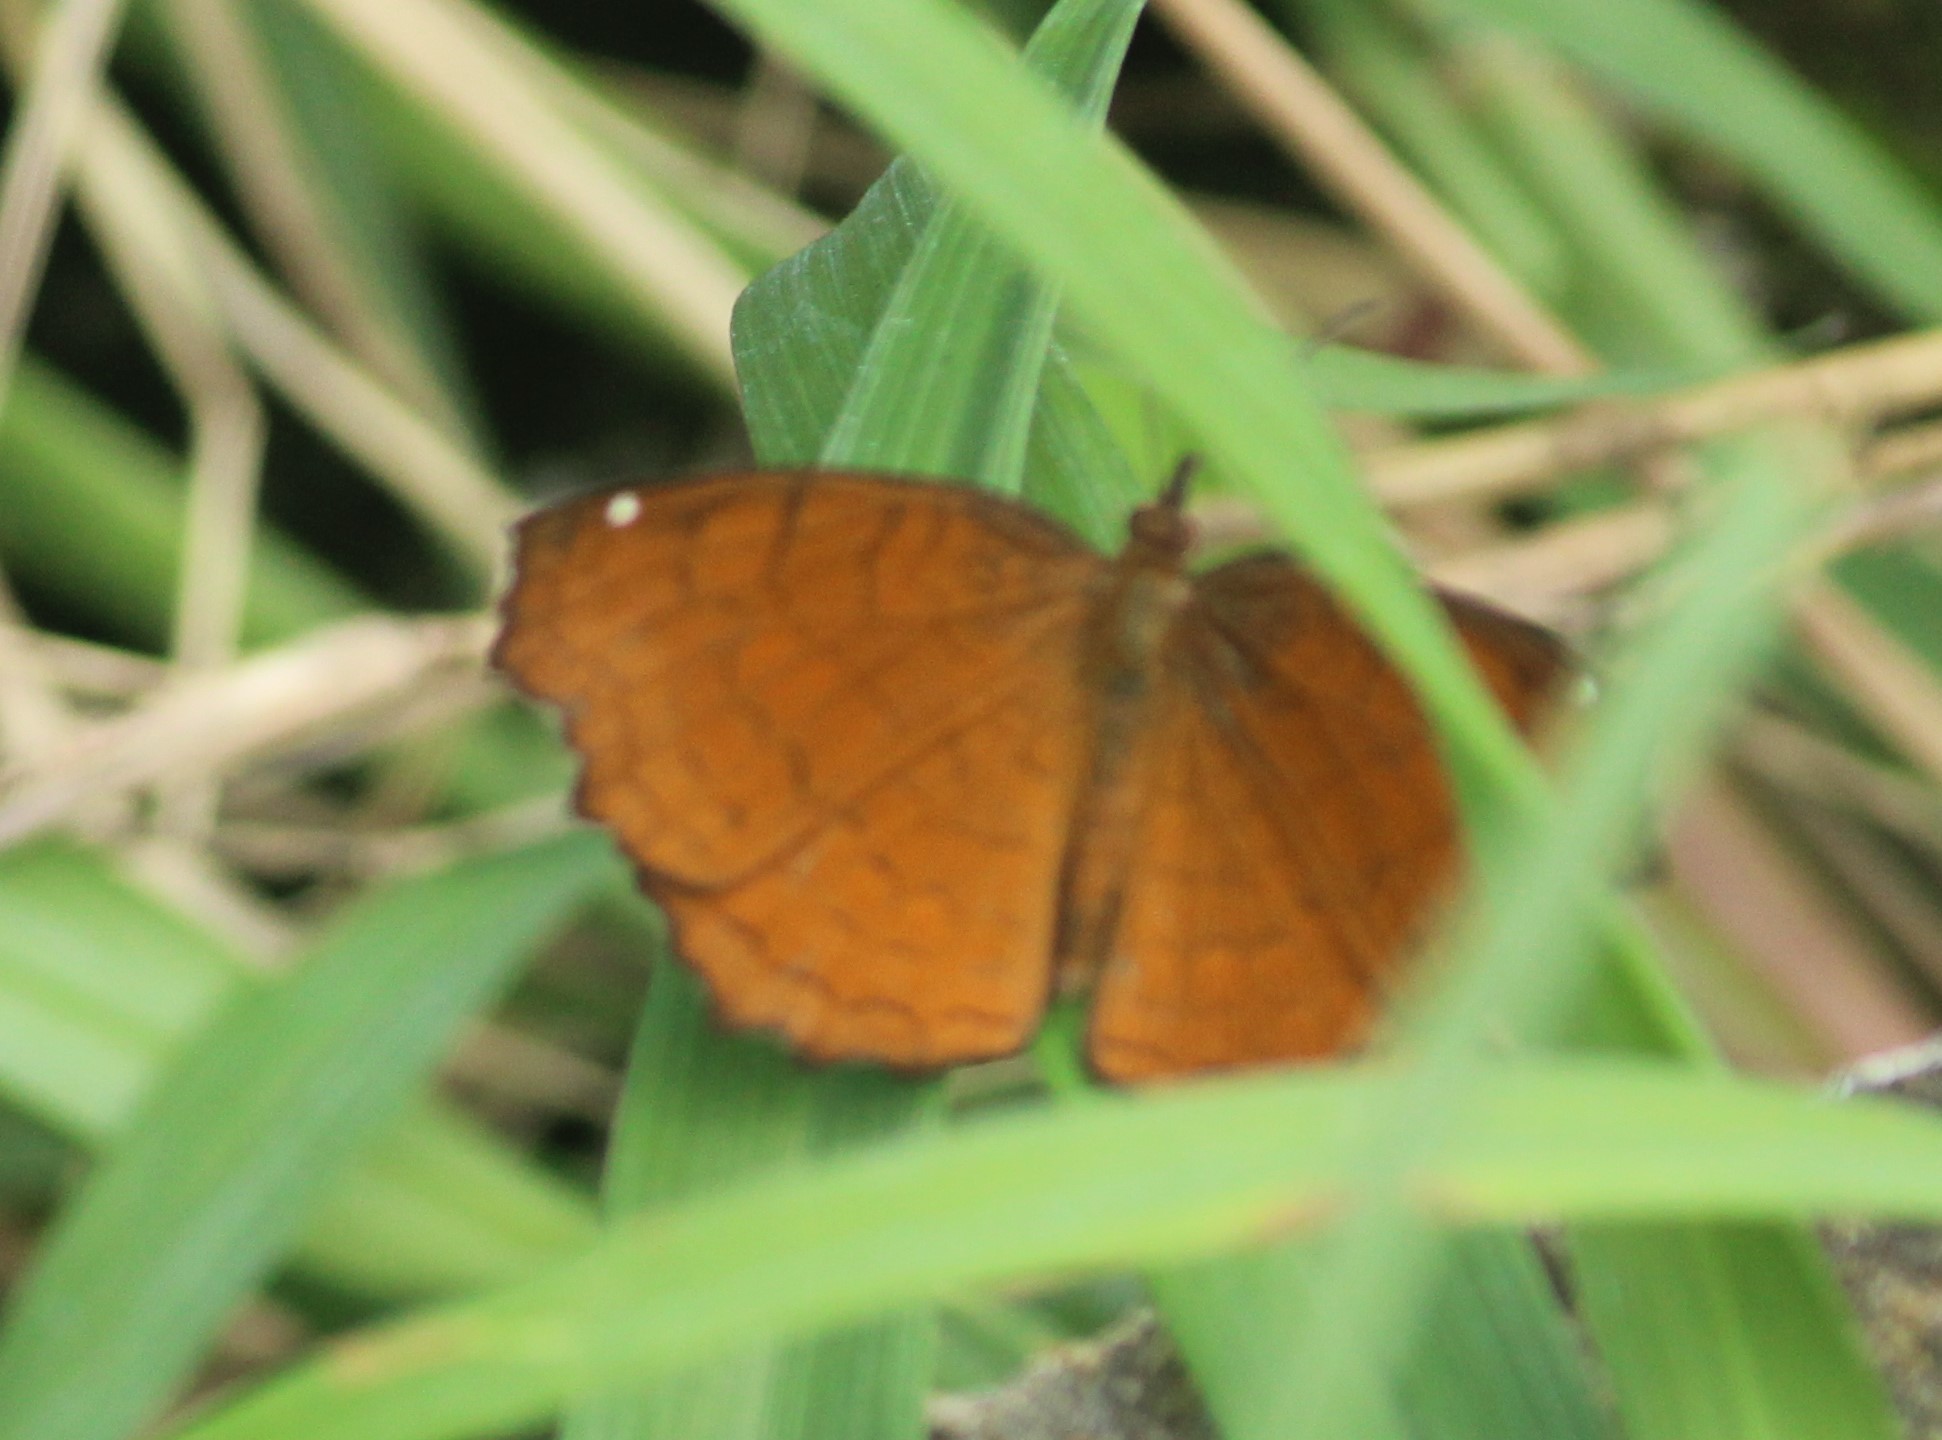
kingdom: Animalia
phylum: Arthropoda
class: Insecta
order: Lepidoptera
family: Nymphalidae
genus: Ariadne
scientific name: Ariadne ariadne
